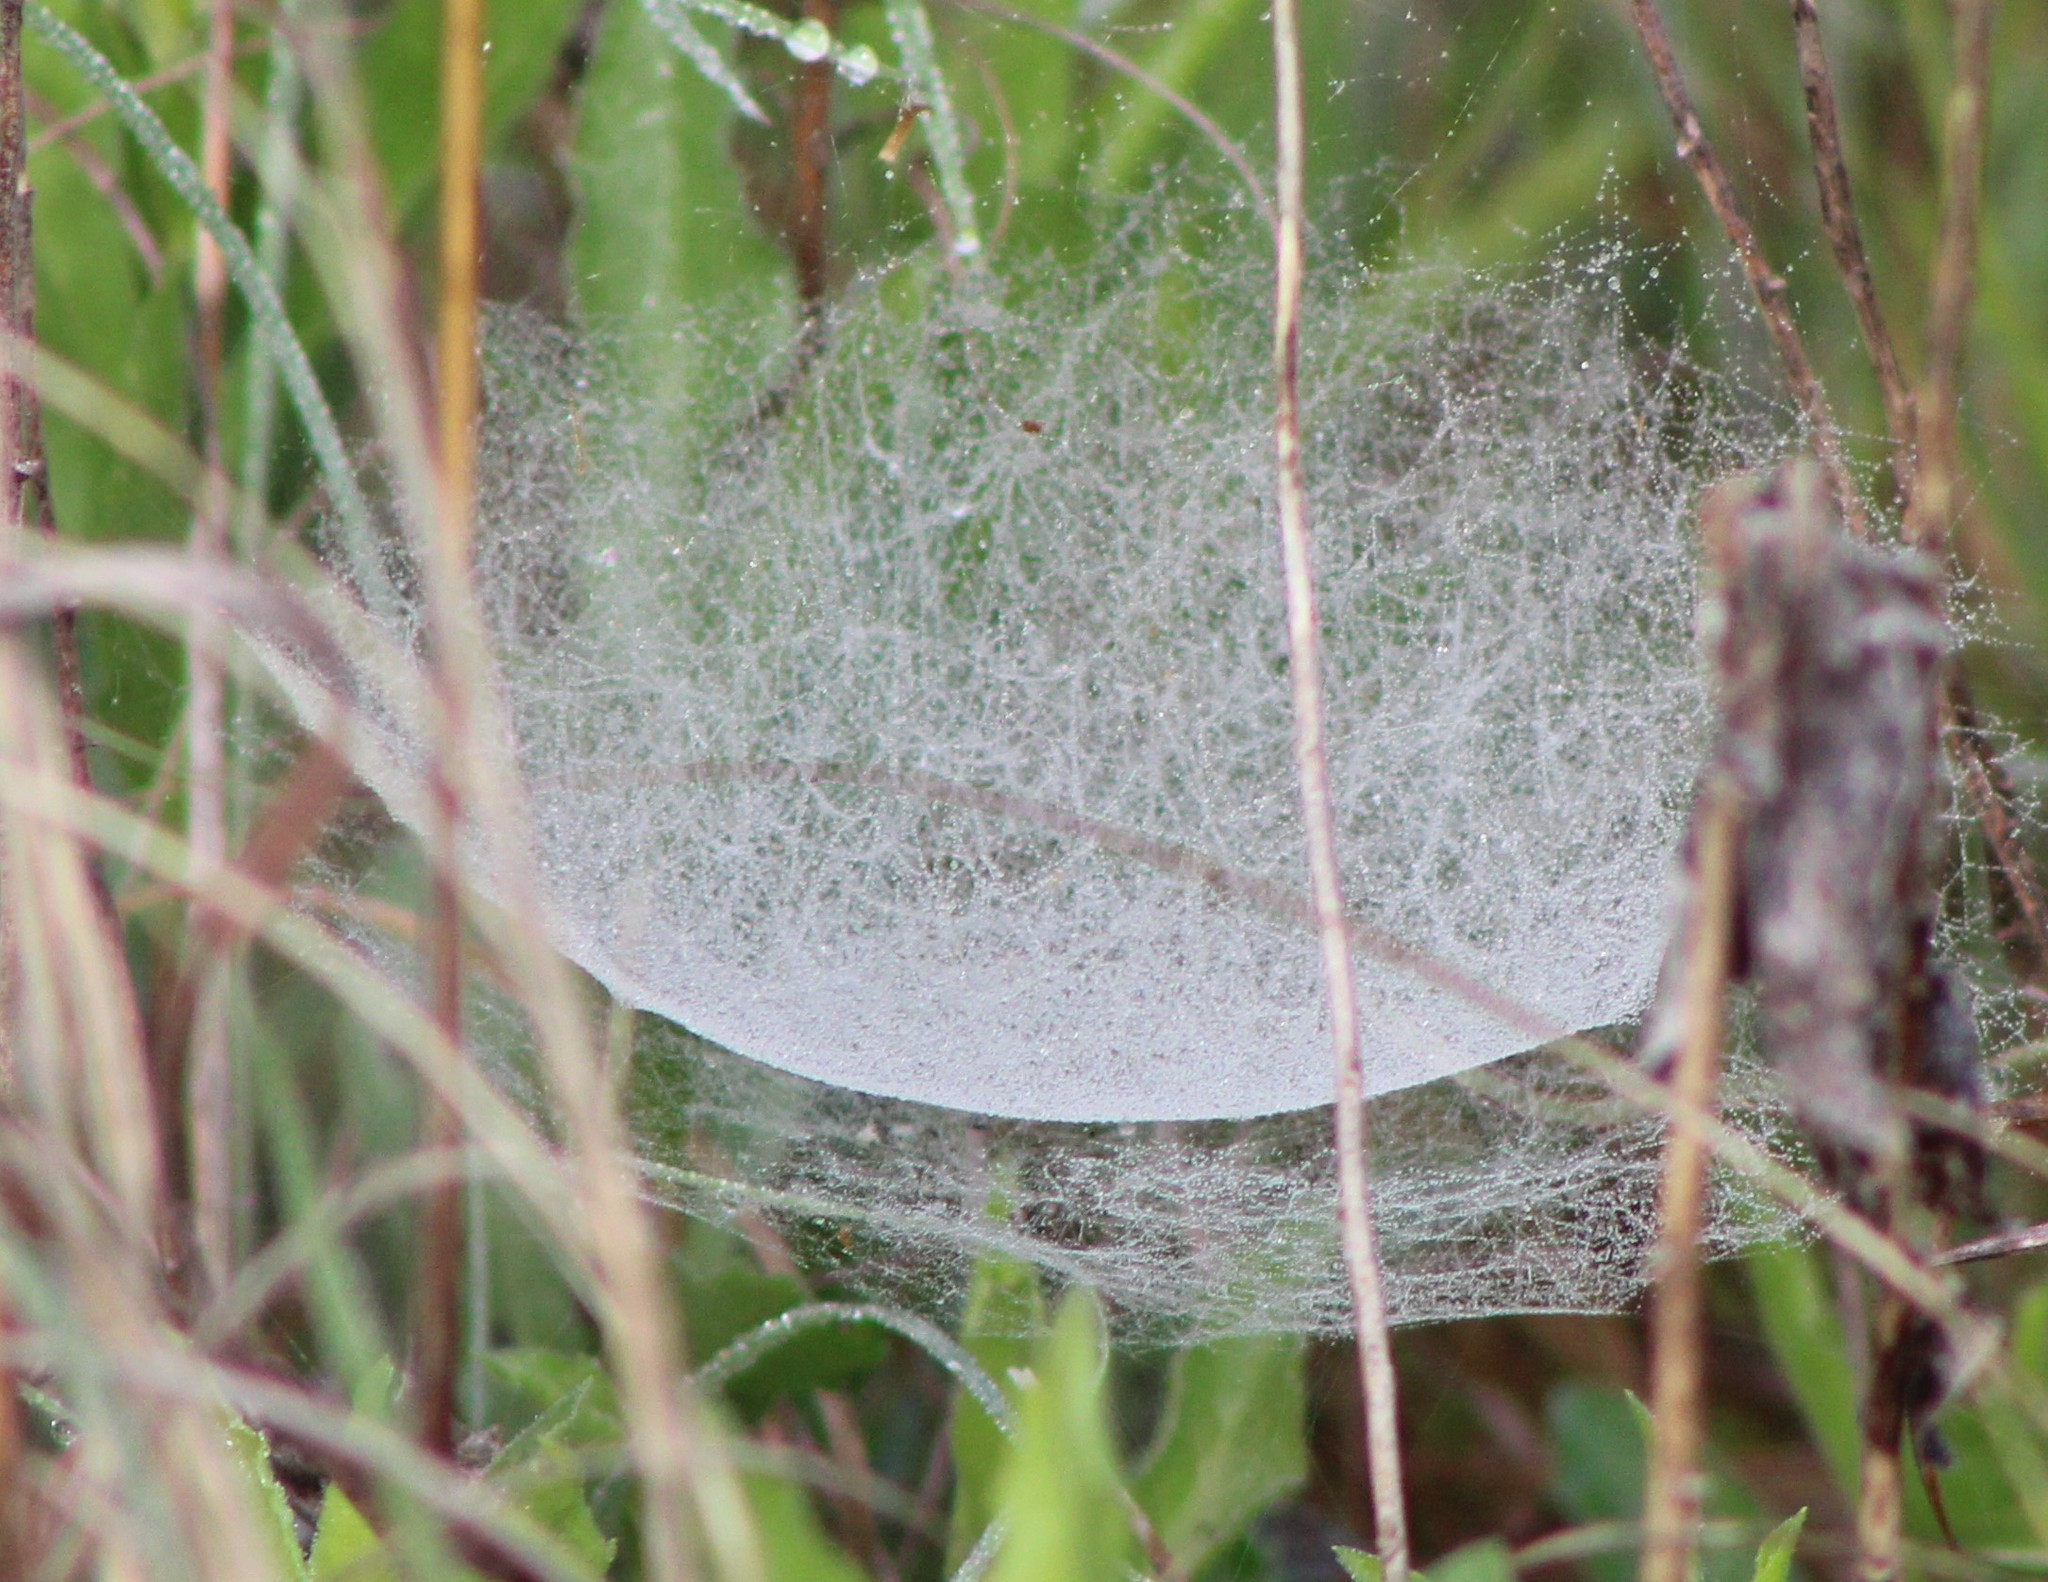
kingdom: Animalia
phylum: Arthropoda
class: Arachnida
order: Araneae
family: Linyphiidae
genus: Frontinella
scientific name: Frontinella pyramitela
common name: Bowl-and-doily spider
